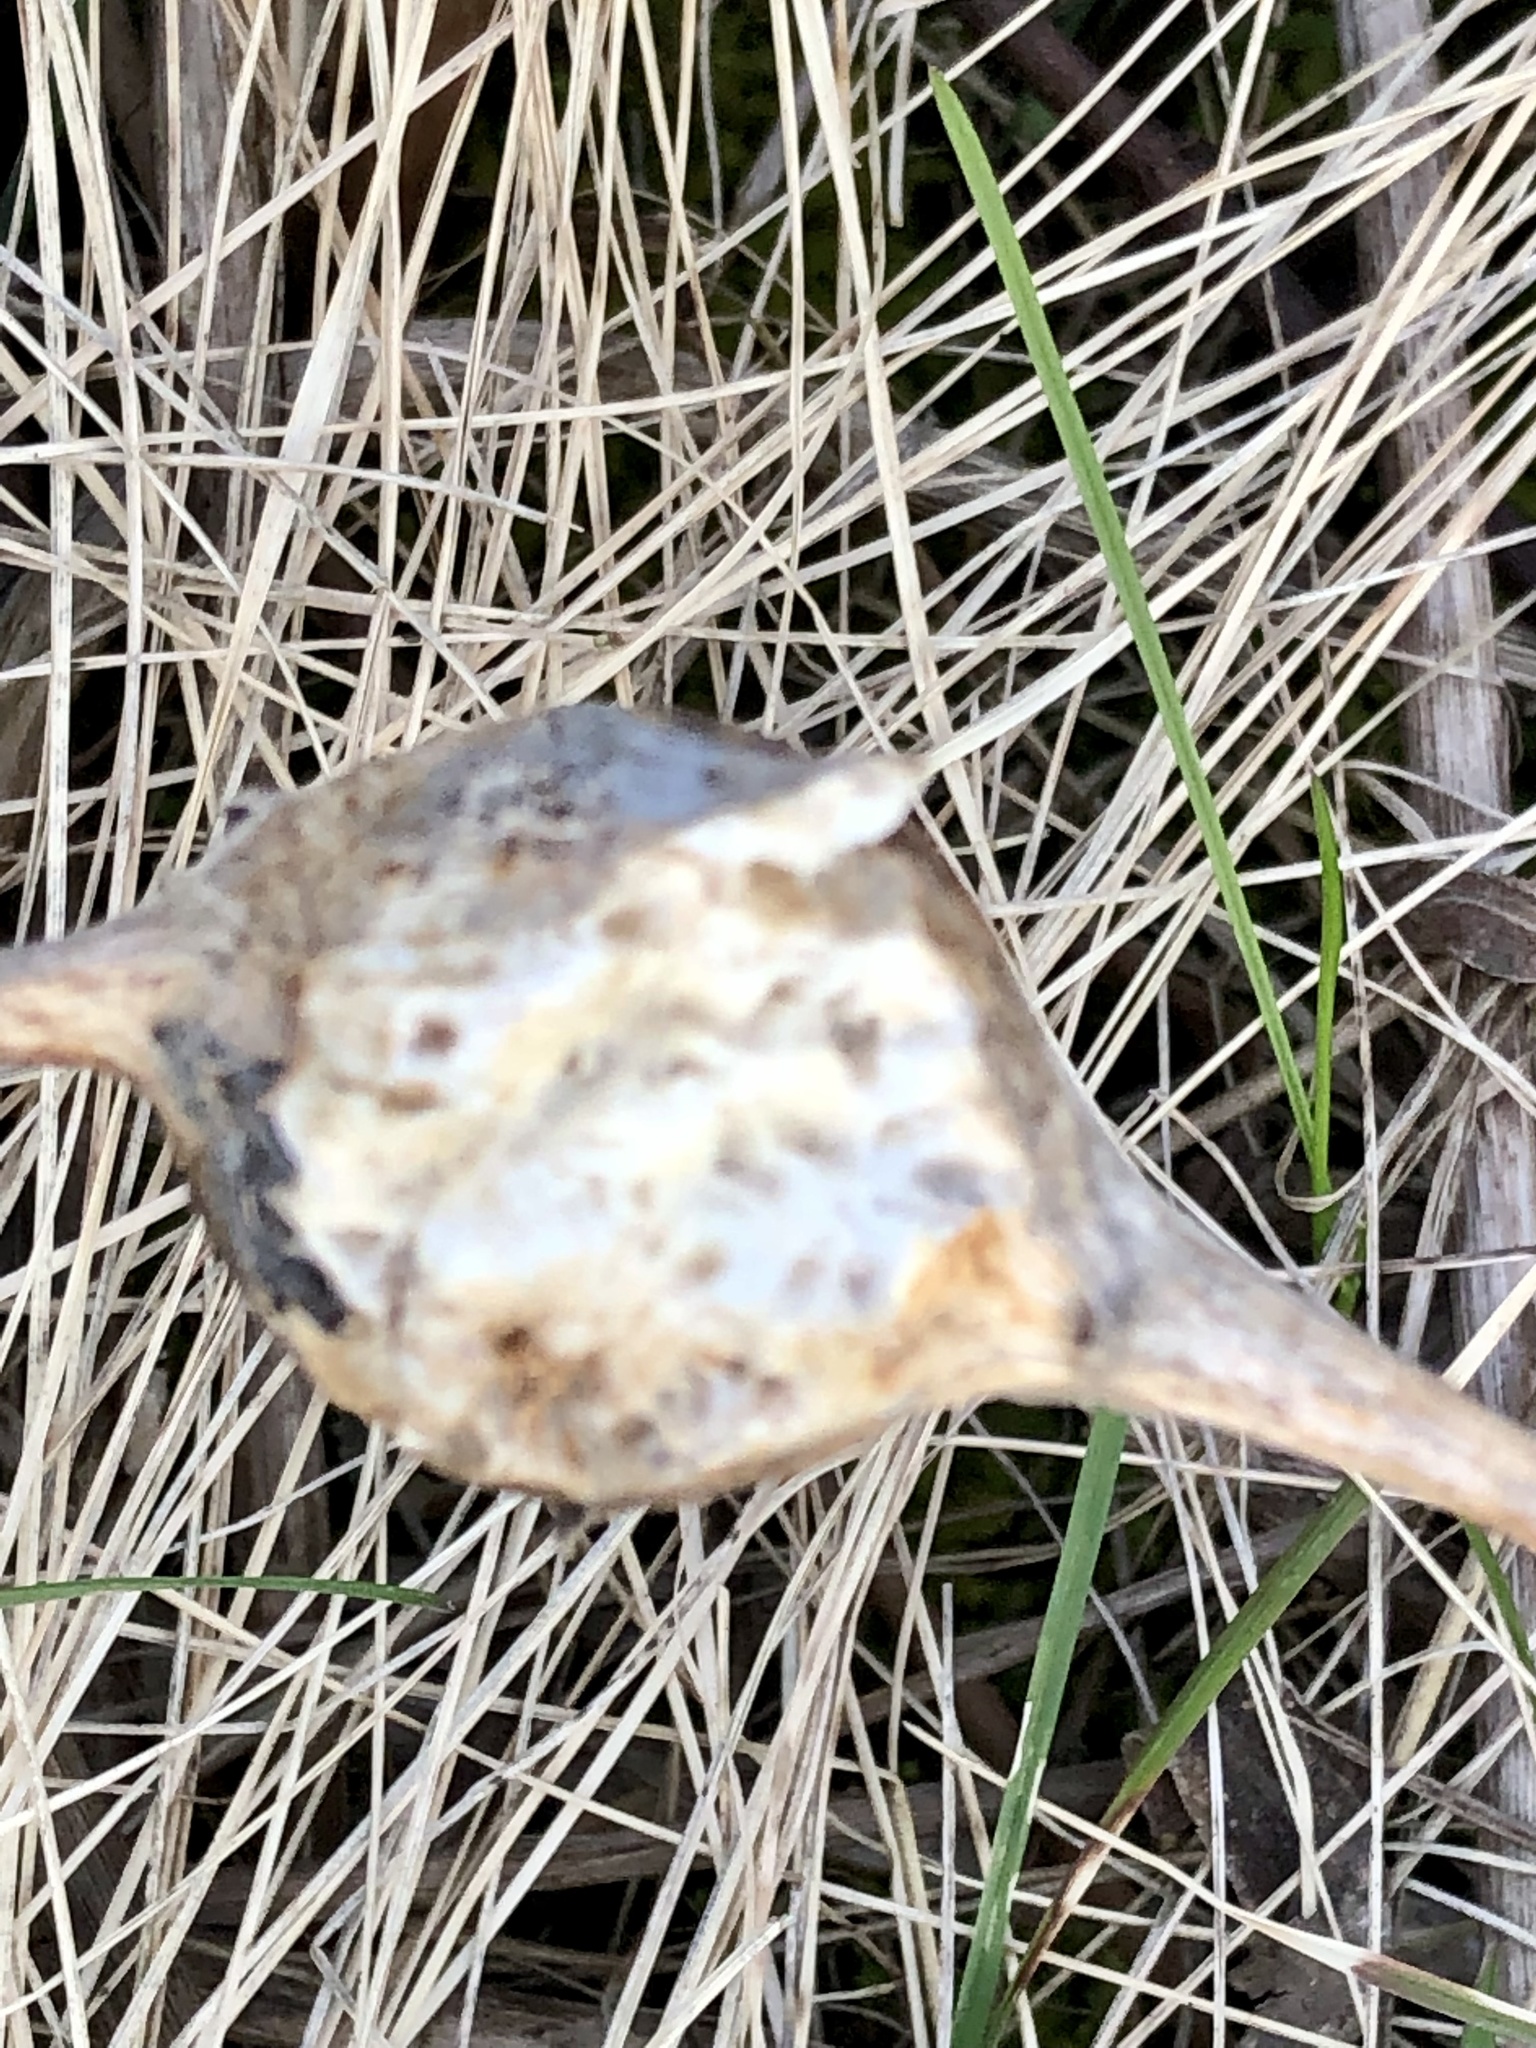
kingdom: Animalia
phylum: Arthropoda
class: Insecta
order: Diptera
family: Tephritidae
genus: Eurosta
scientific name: Eurosta solidaginis
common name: Goldenrod gall fly
